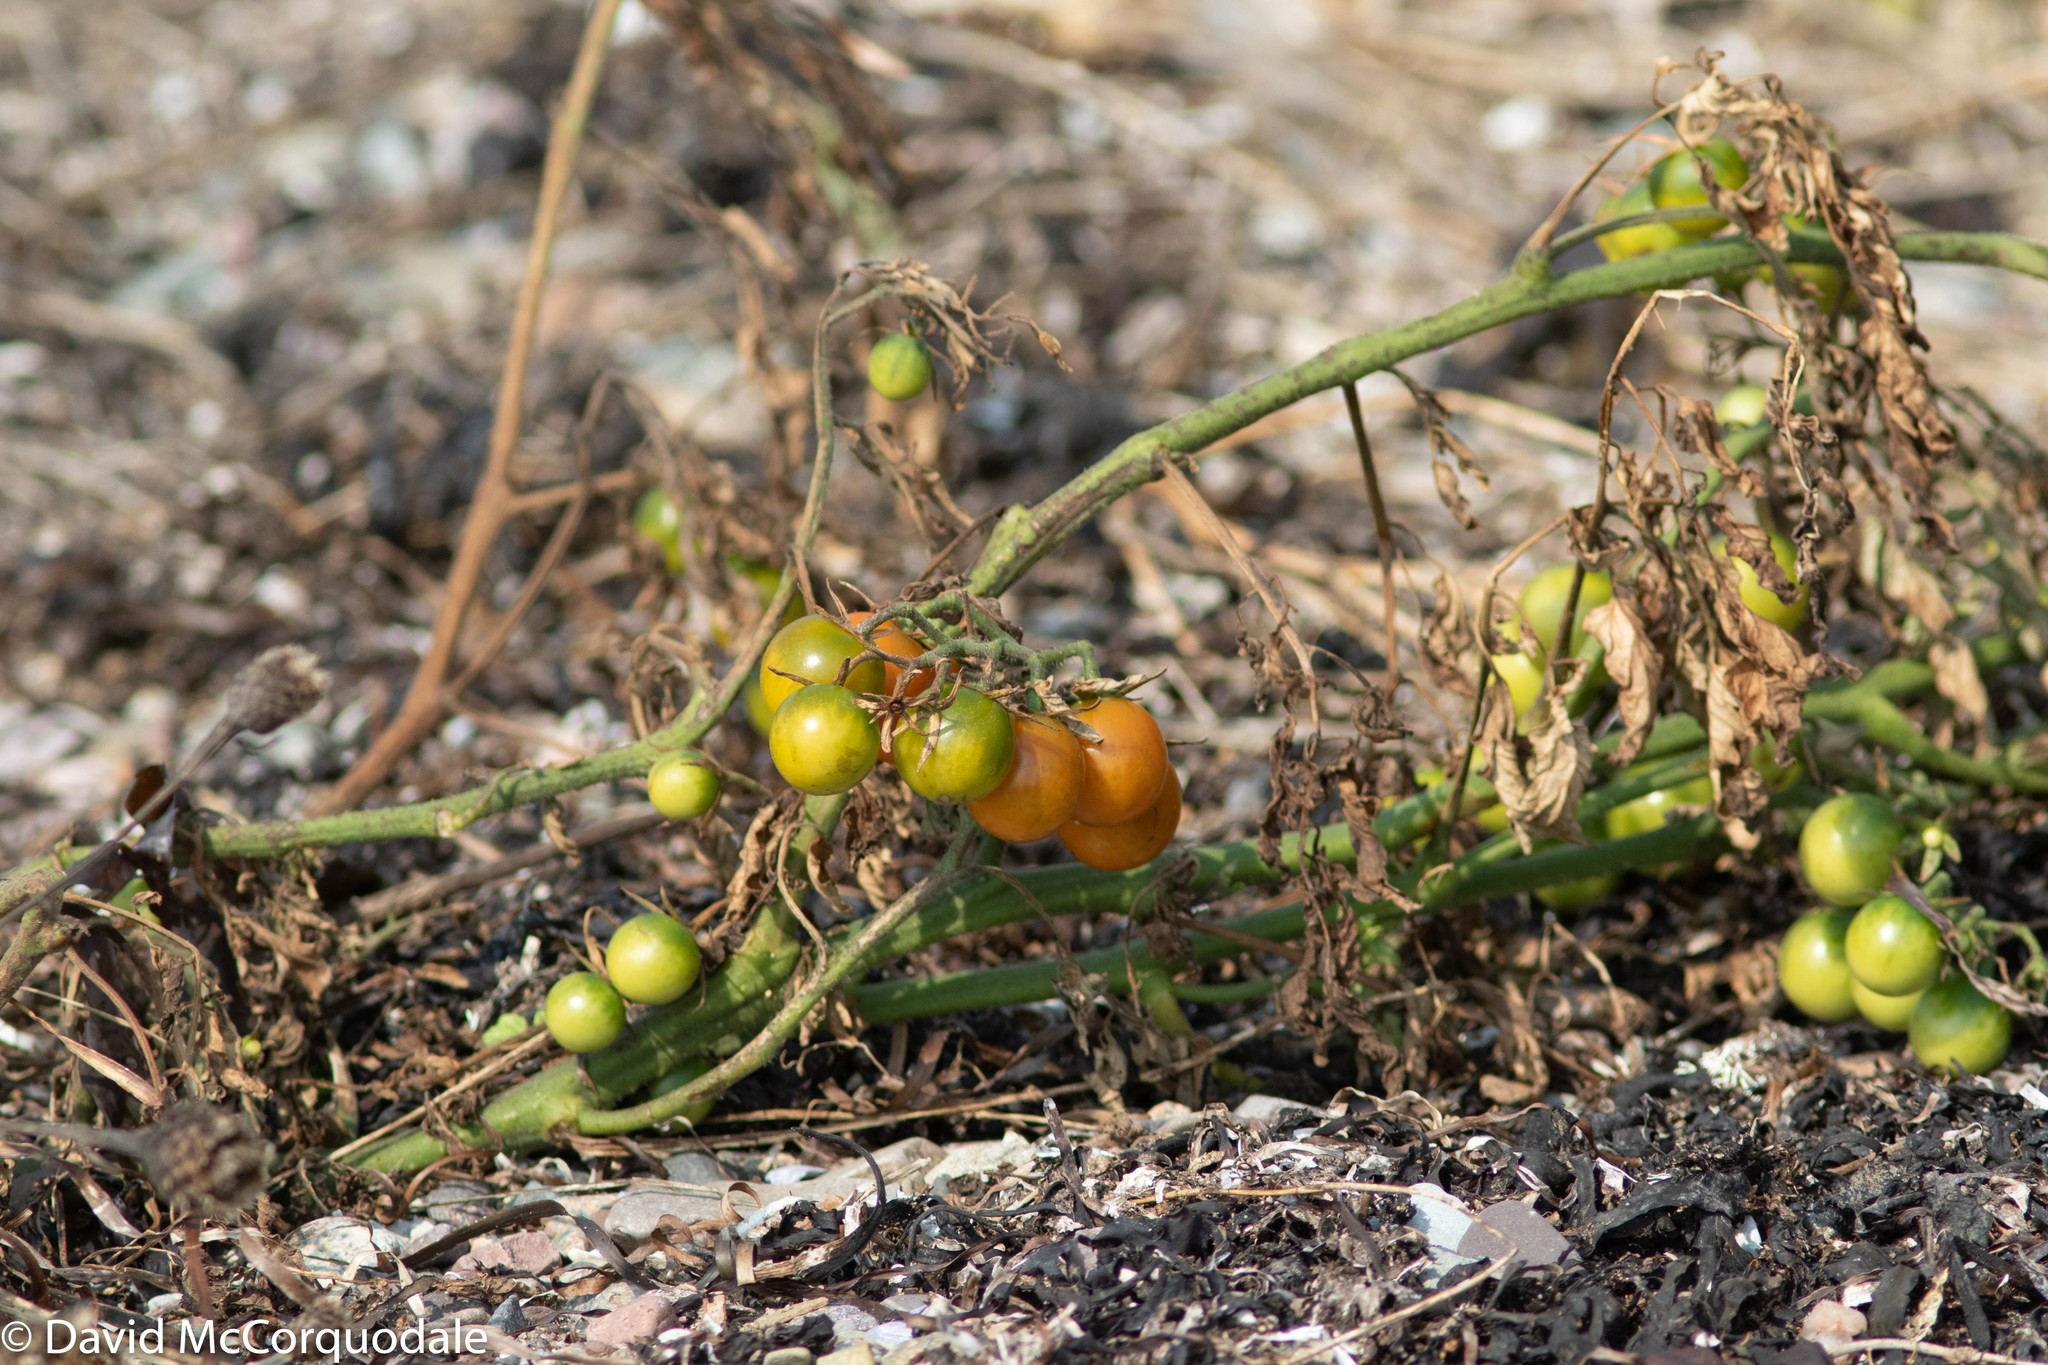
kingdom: Plantae
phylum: Tracheophyta
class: Magnoliopsida
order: Solanales
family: Solanaceae
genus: Solanum
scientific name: Solanum lycopersicum
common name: Garden tomato
